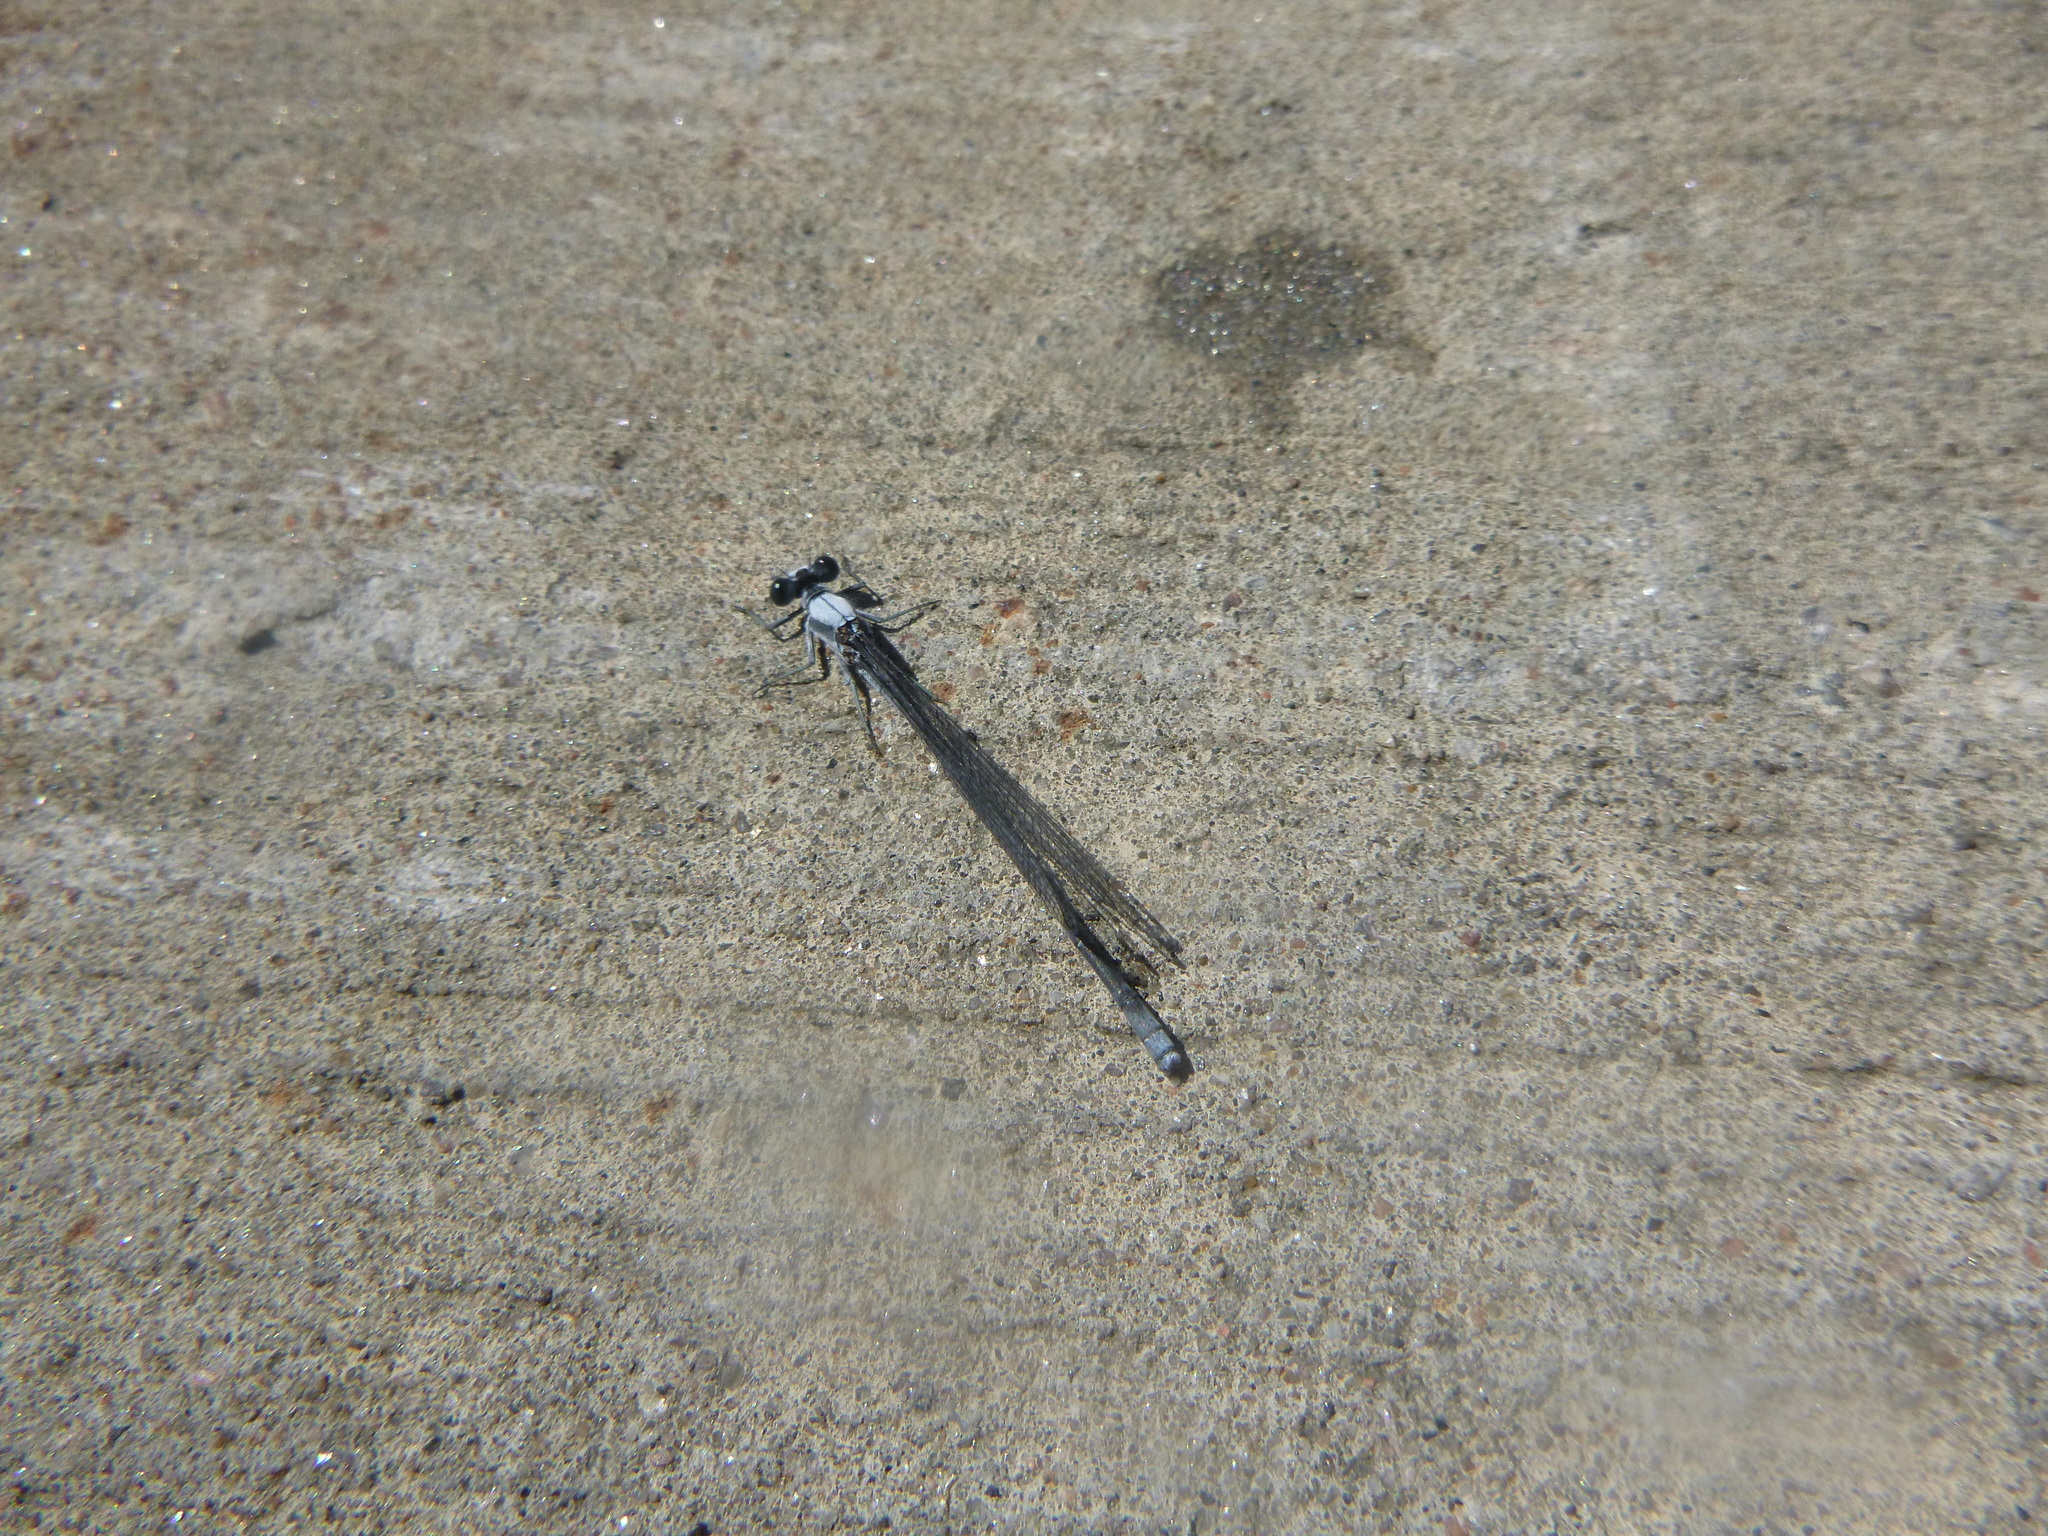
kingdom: Animalia
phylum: Arthropoda
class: Insecta
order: Odonata
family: Coenagrionidae
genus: Argia
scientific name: Argia moesta
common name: Powdered dancer
